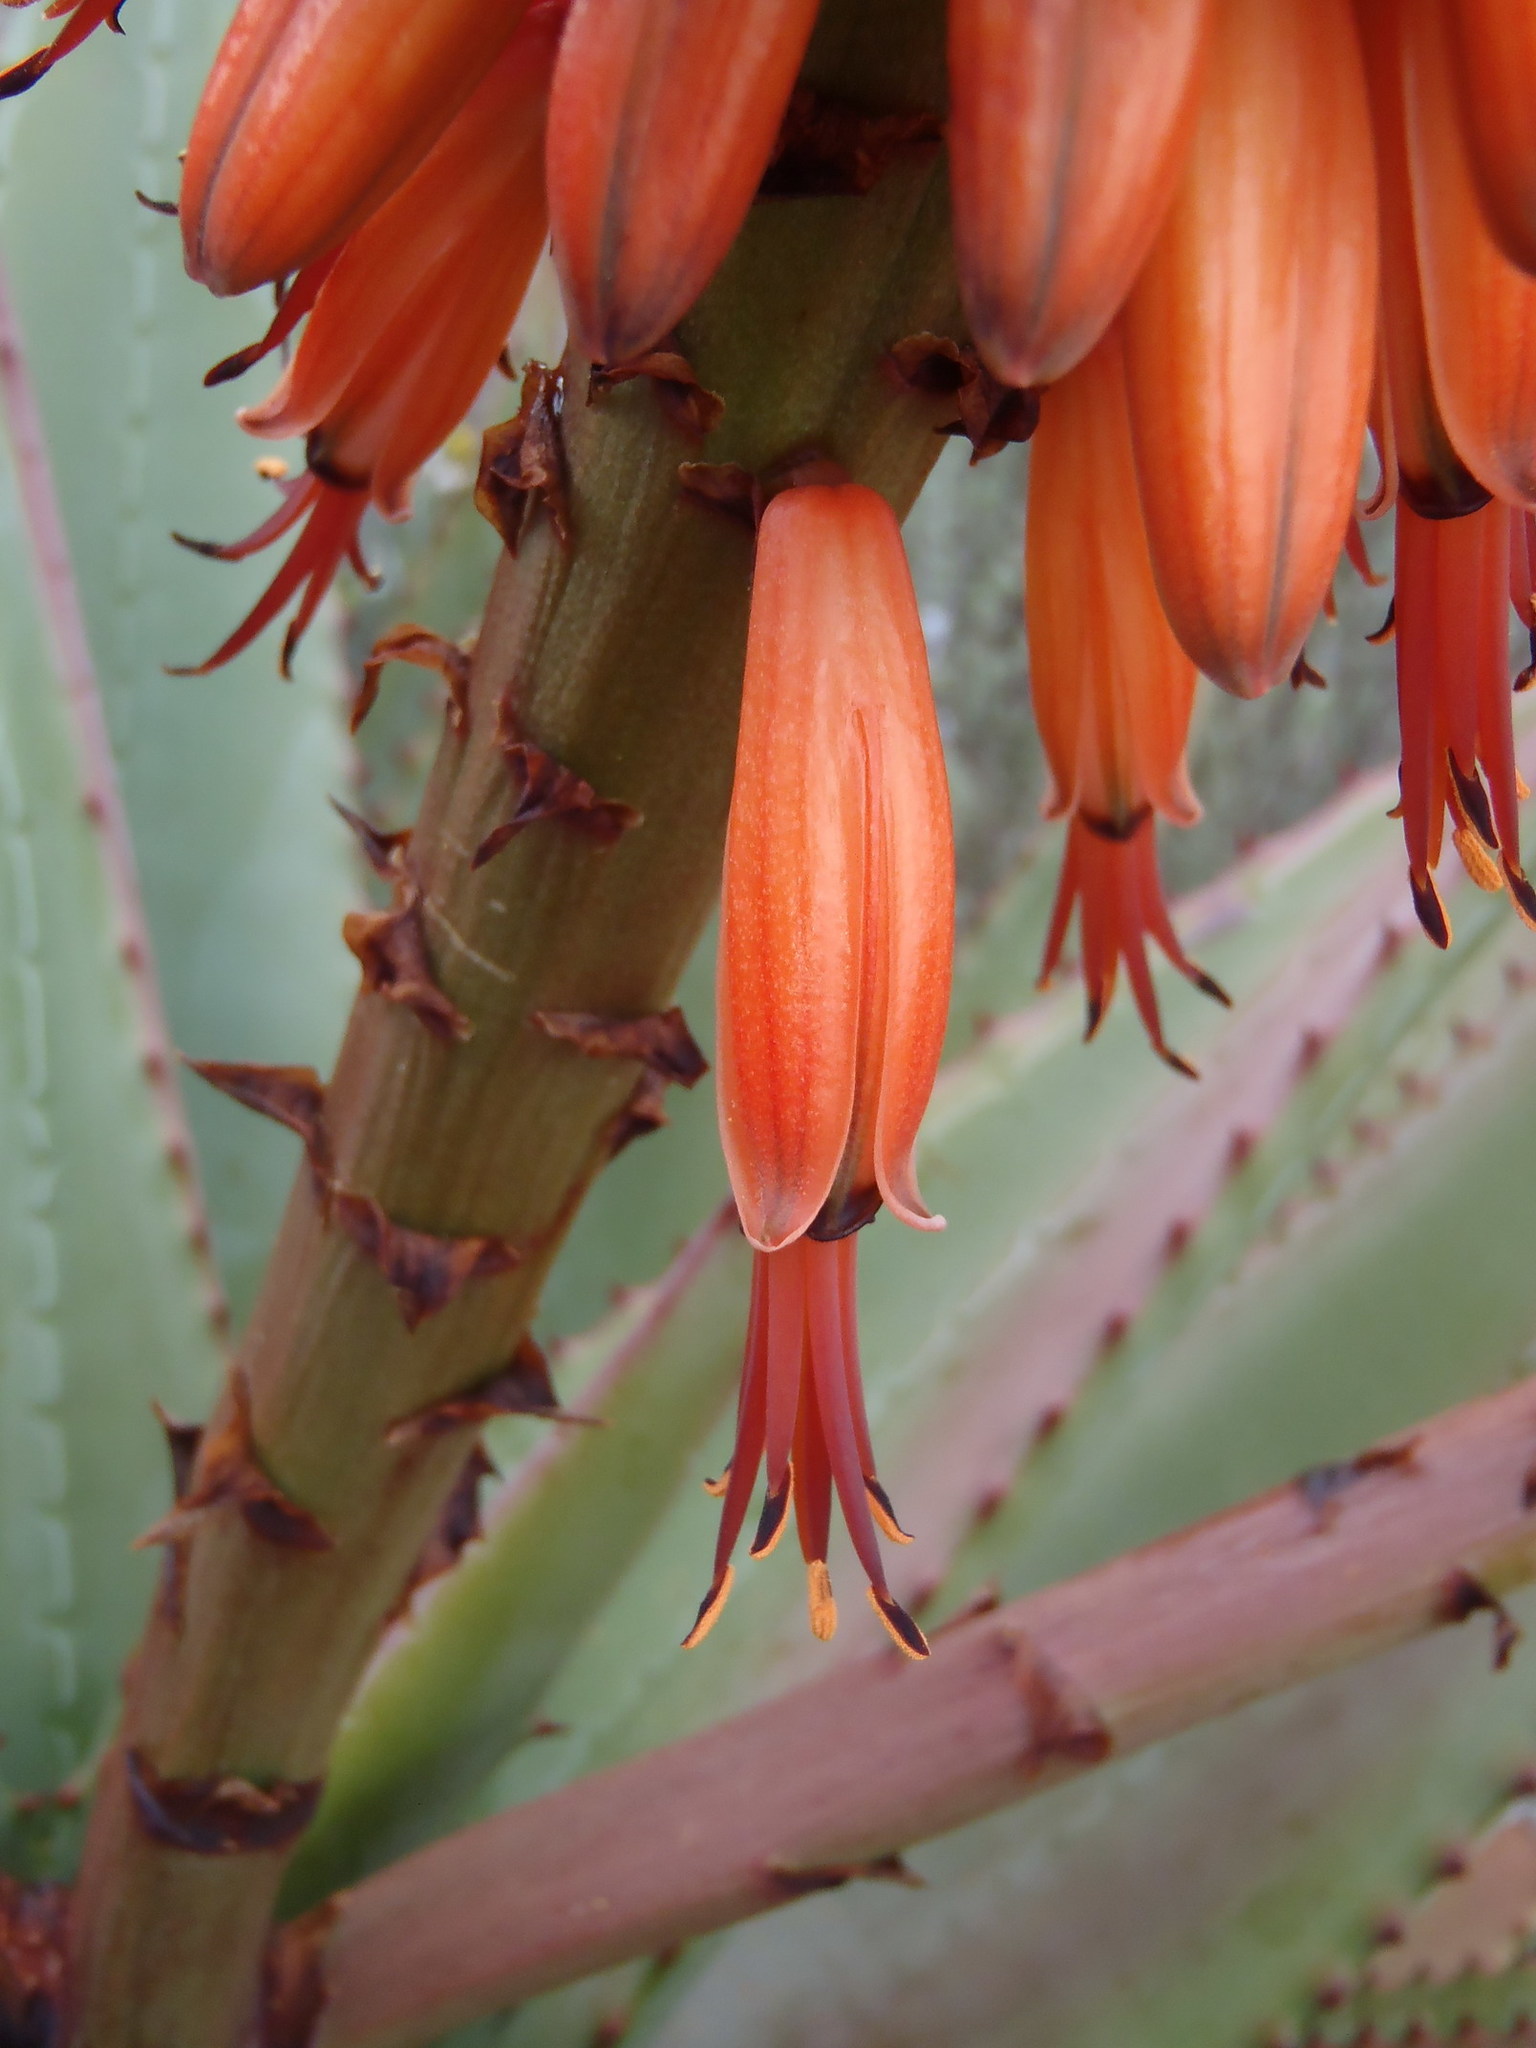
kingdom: Plantae
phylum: Tracheophyta
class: Liliopsida
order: Asparagales
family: Asphodelaceae
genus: Aloe
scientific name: Aloe ferox
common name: Bitter aloe
